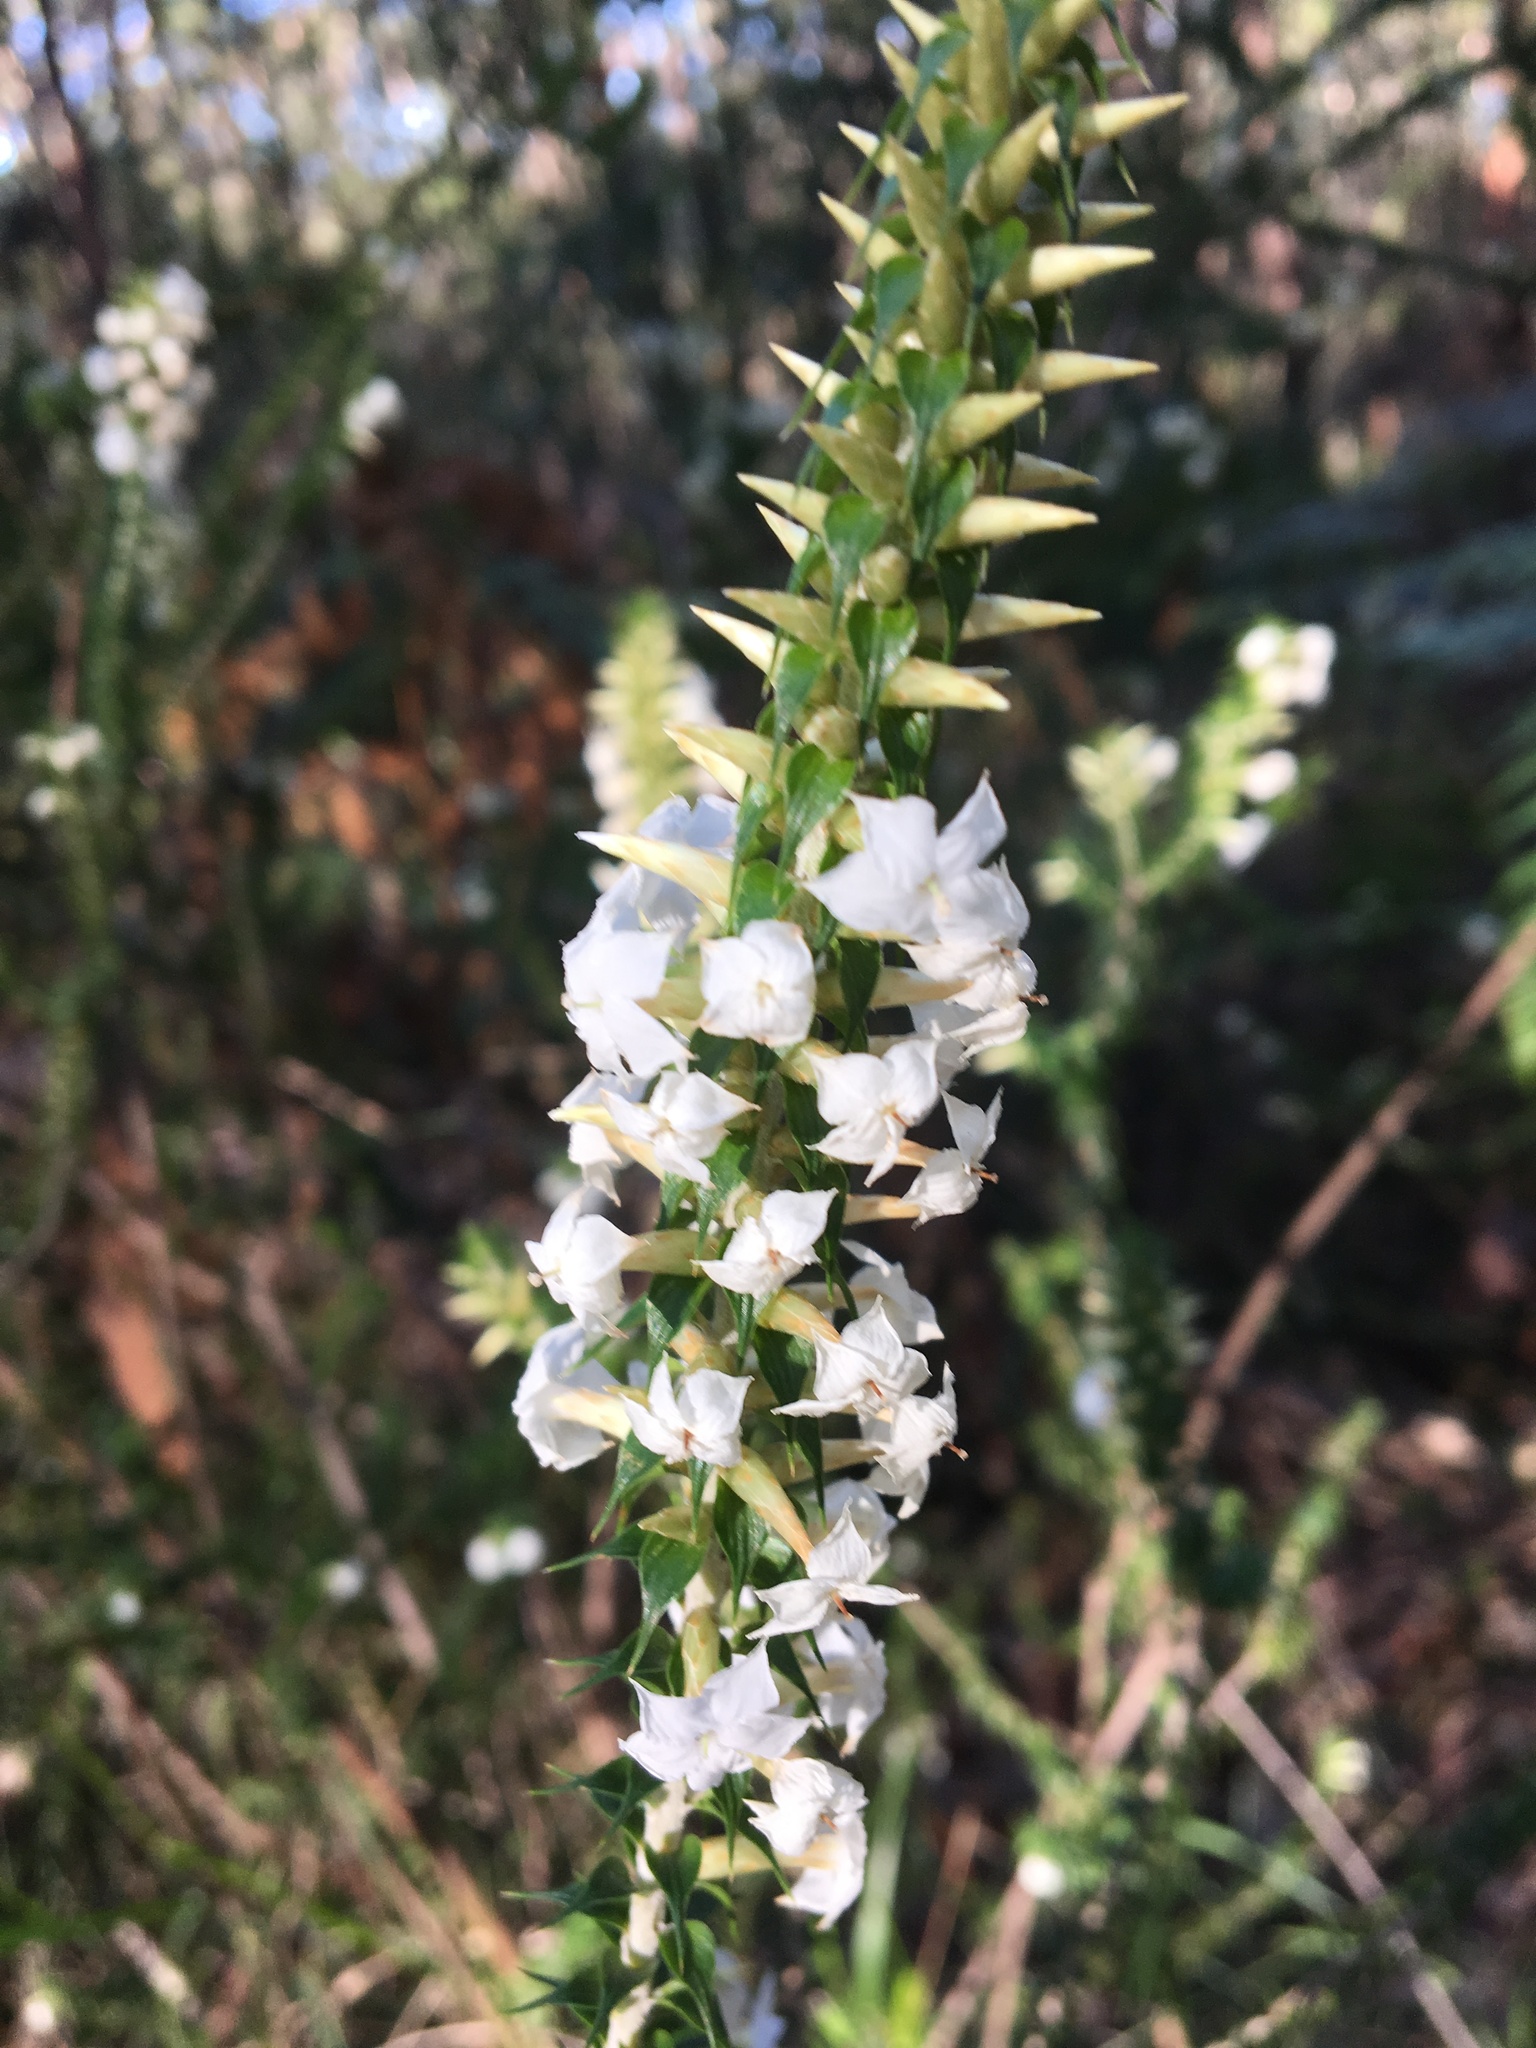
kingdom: Plantae
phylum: Tracheophyta
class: Magnoliopsida
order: Ericales
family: Ericaceae
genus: Woollsia
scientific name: Woollsia pungens
